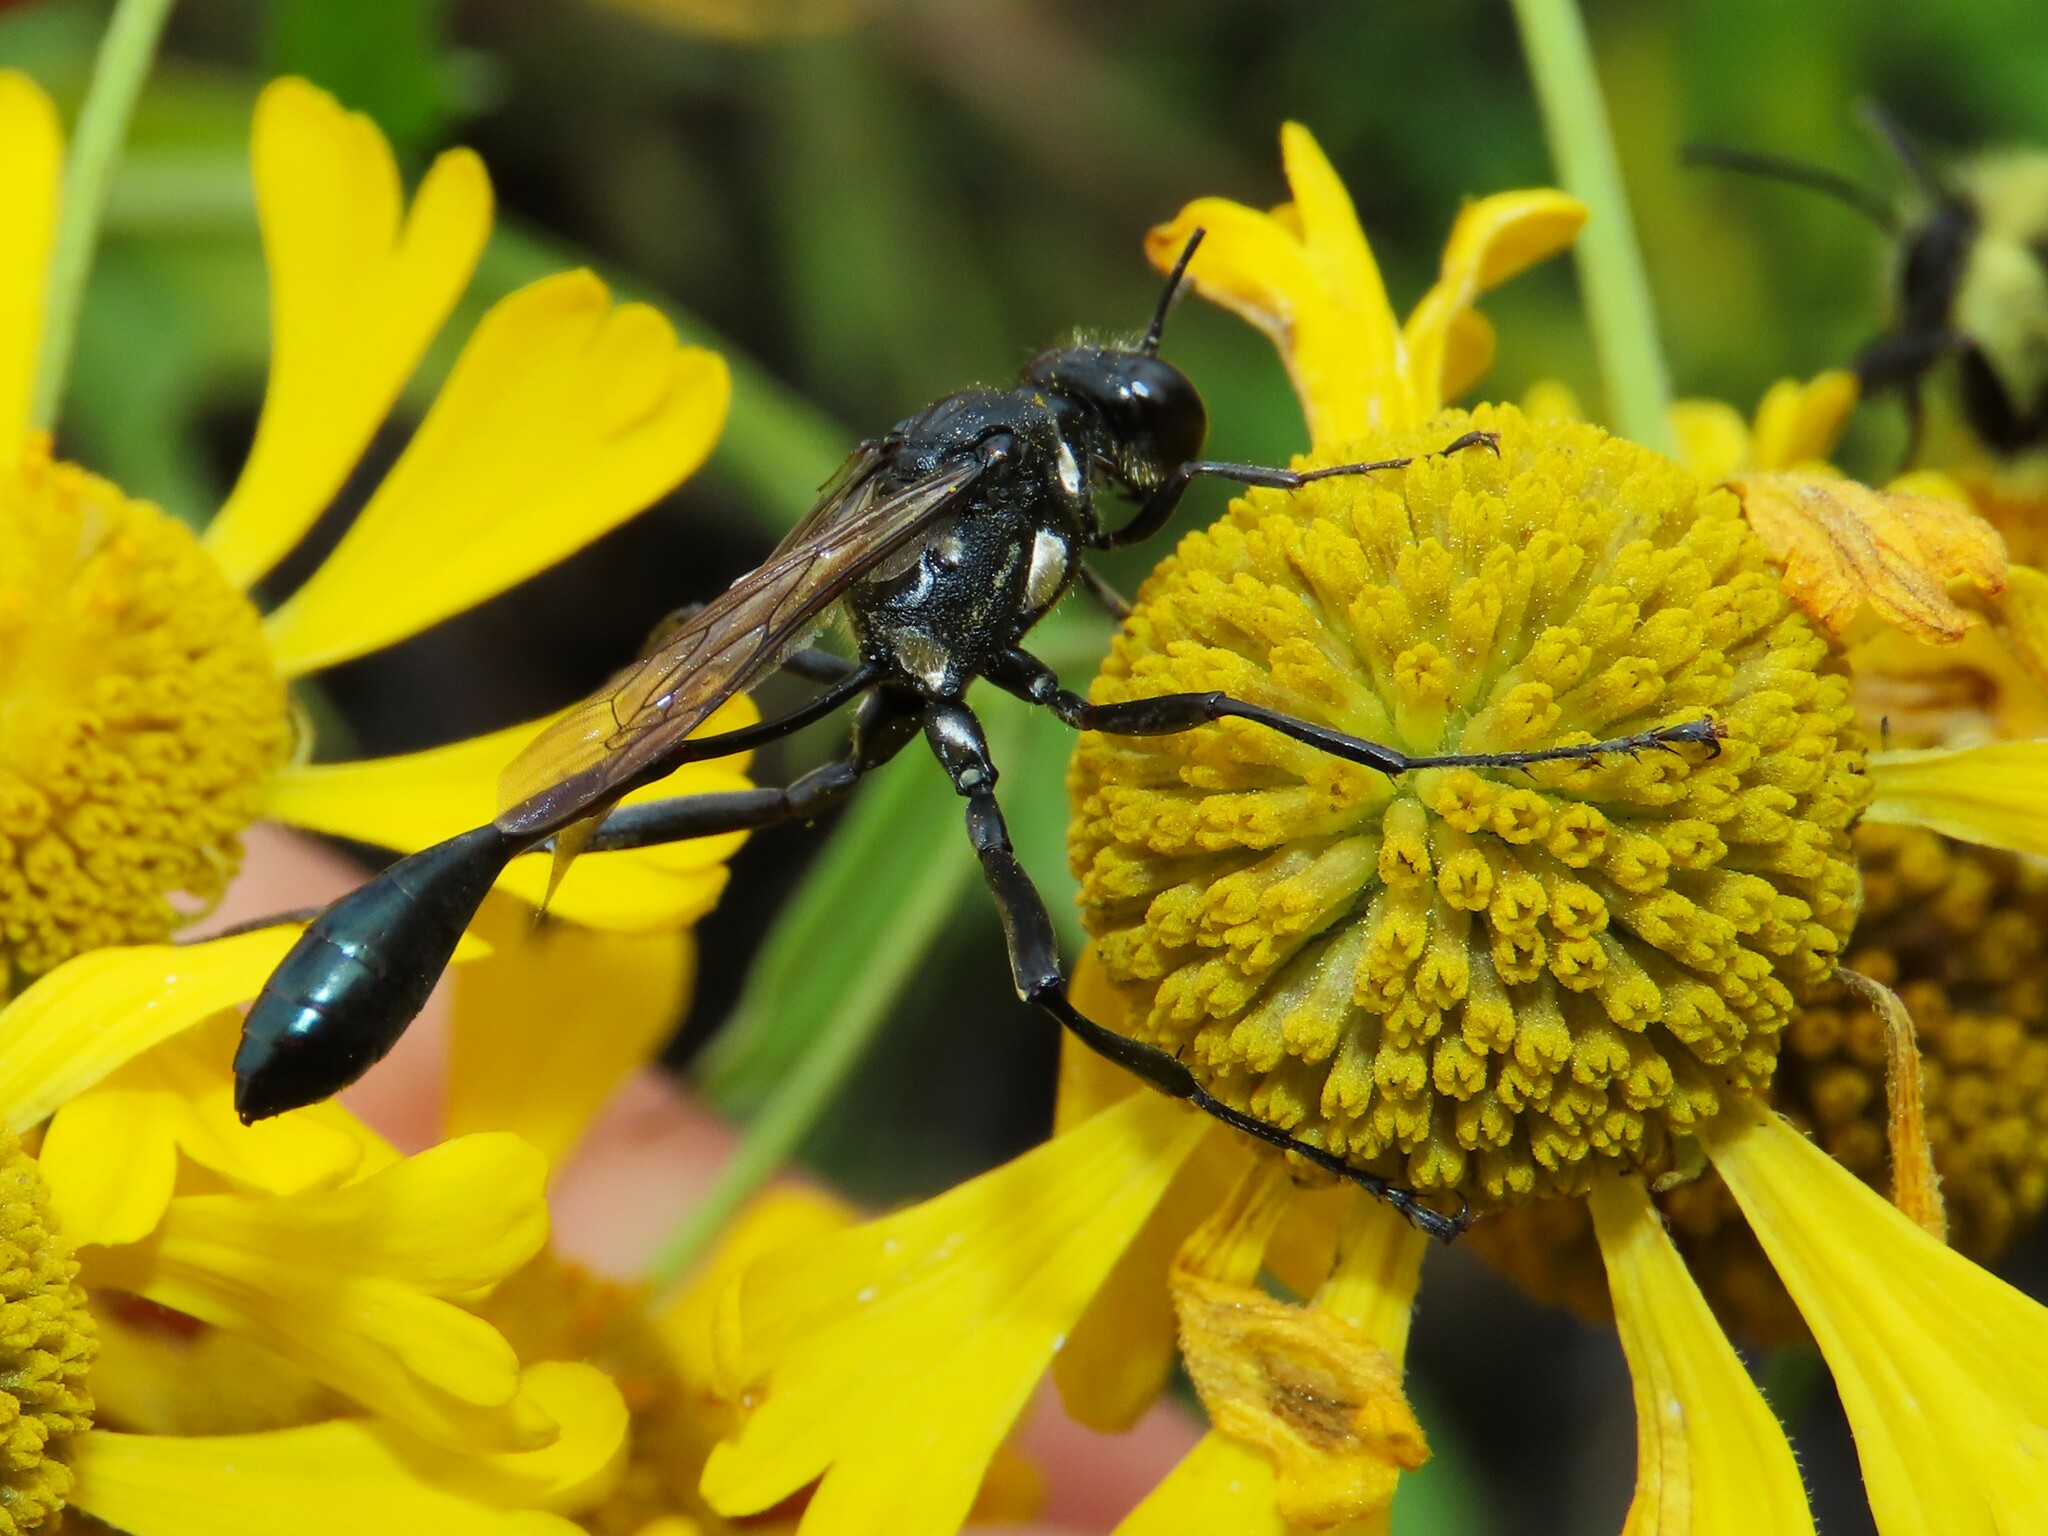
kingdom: Animalia
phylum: Arthropoda
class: Insecta
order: Hymenoptera
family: Sphecidae
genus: Eremnophila
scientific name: Eremnophila aureonotata
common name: Gold-marked thread-waisted wasp
